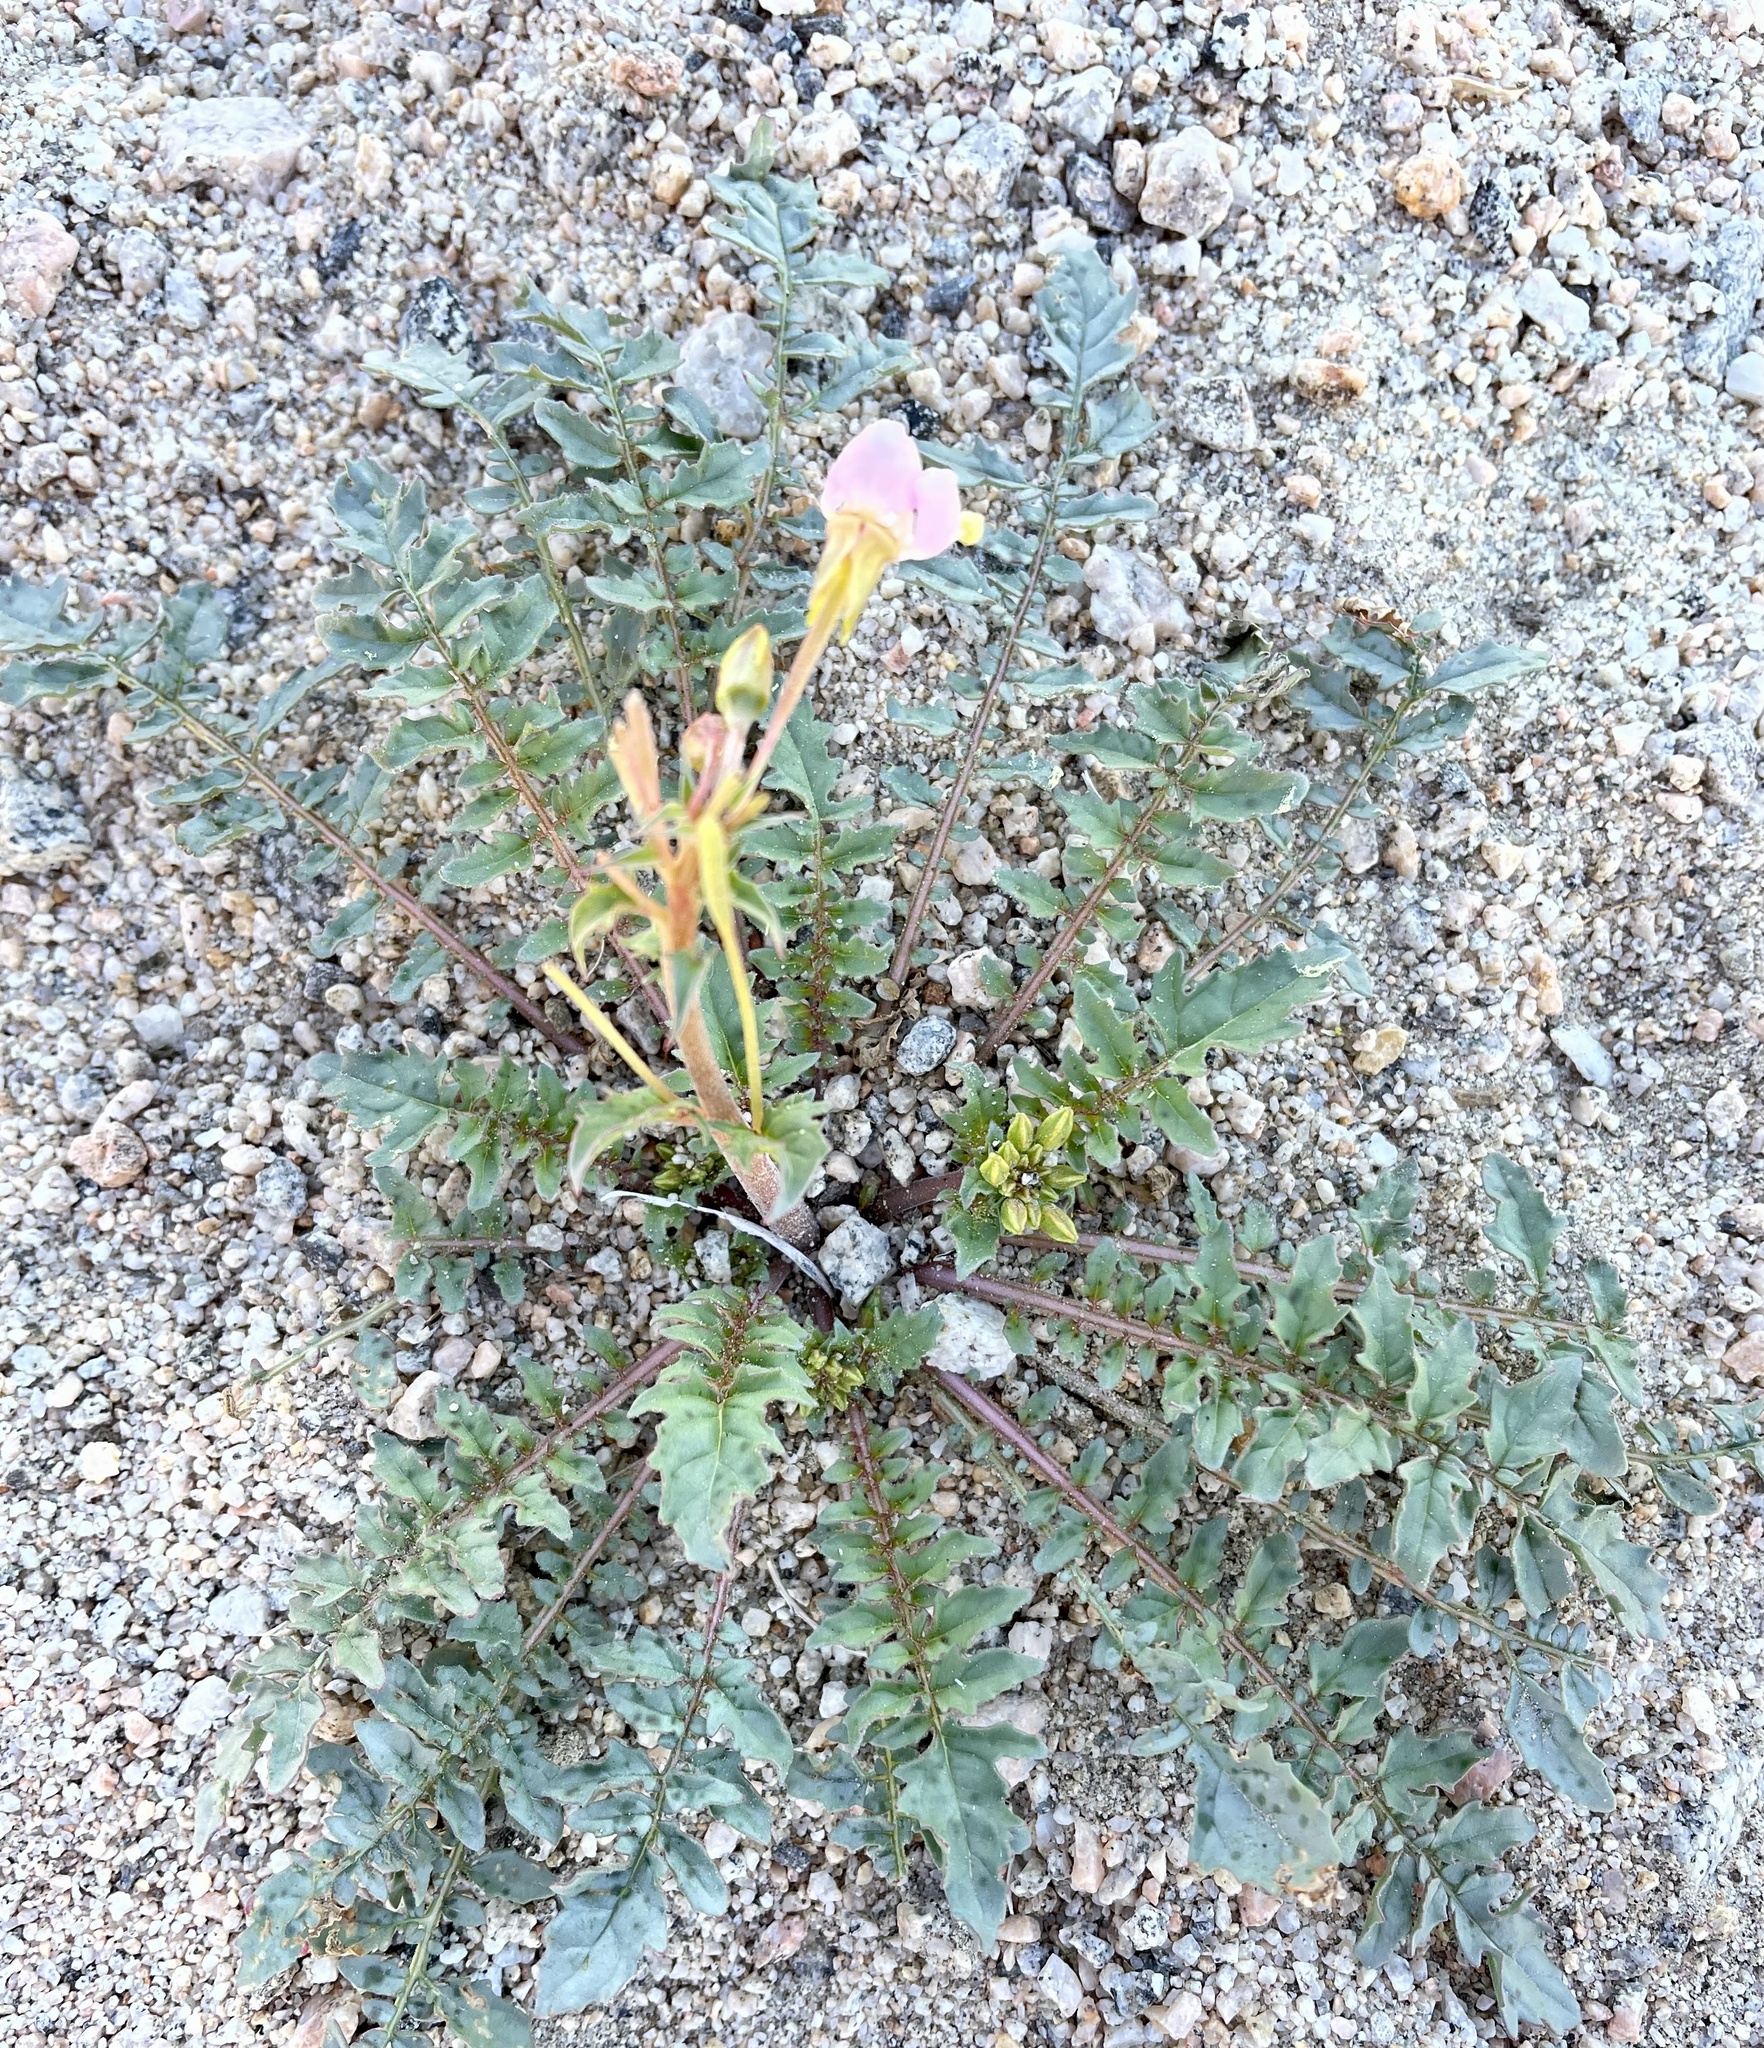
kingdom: Plantae
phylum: Tracheophyta
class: Magnoliopsida
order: Myrtales
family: Onagraceae
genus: Chylismia
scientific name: Chylismia claviformis
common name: Browneyes
